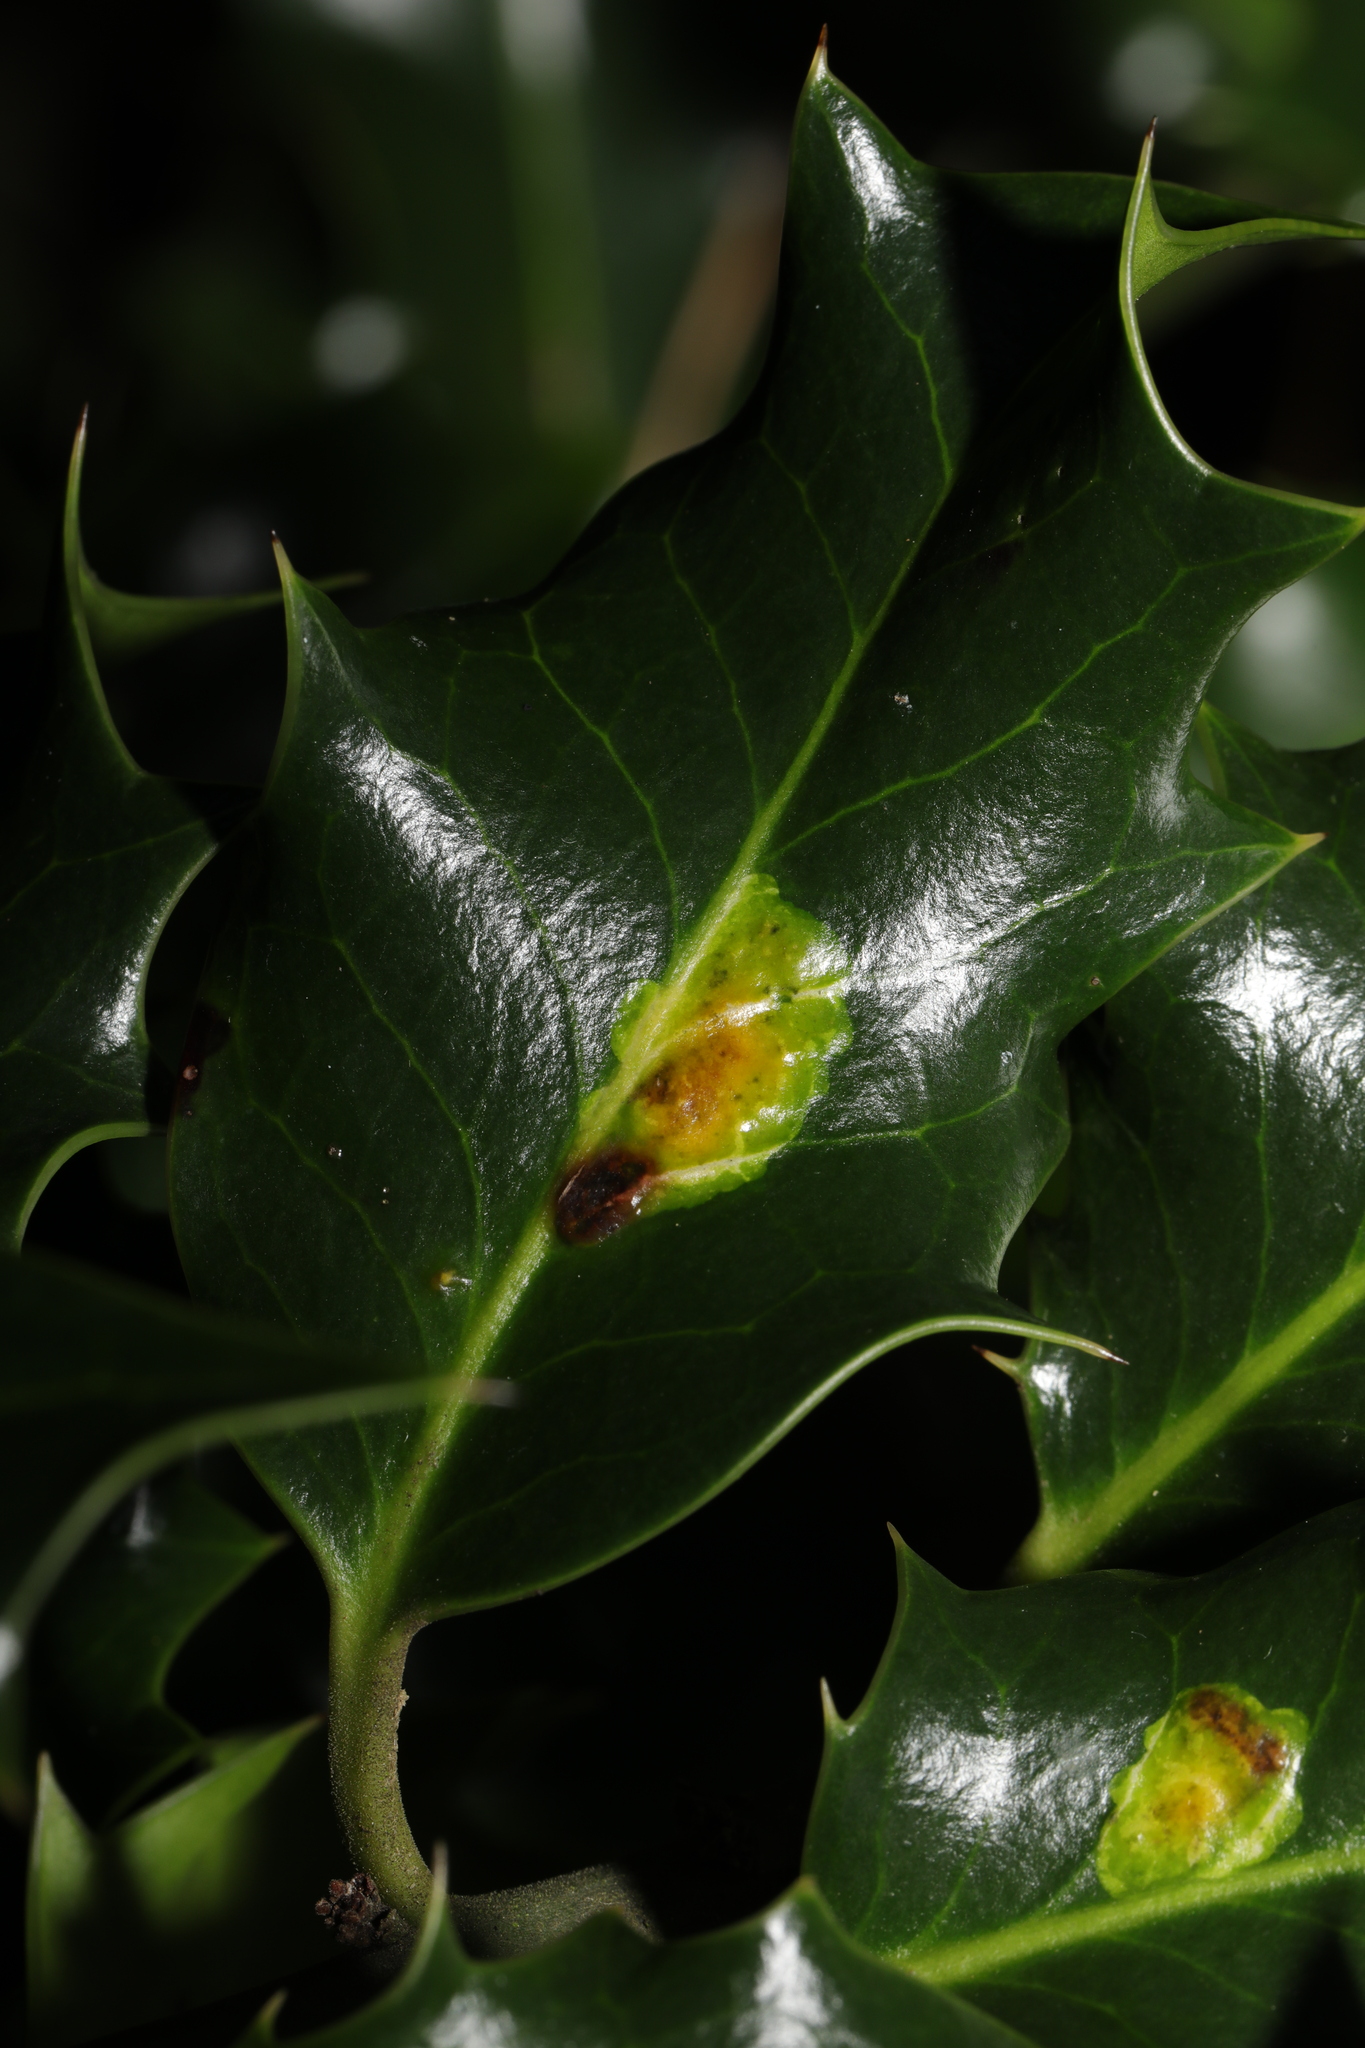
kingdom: Animalia
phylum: Arthropoda
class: Insecta
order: Diptera
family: Agromyzidae
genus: Phytomyza
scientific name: Phytomyza ilicis
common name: Holly leafminer
